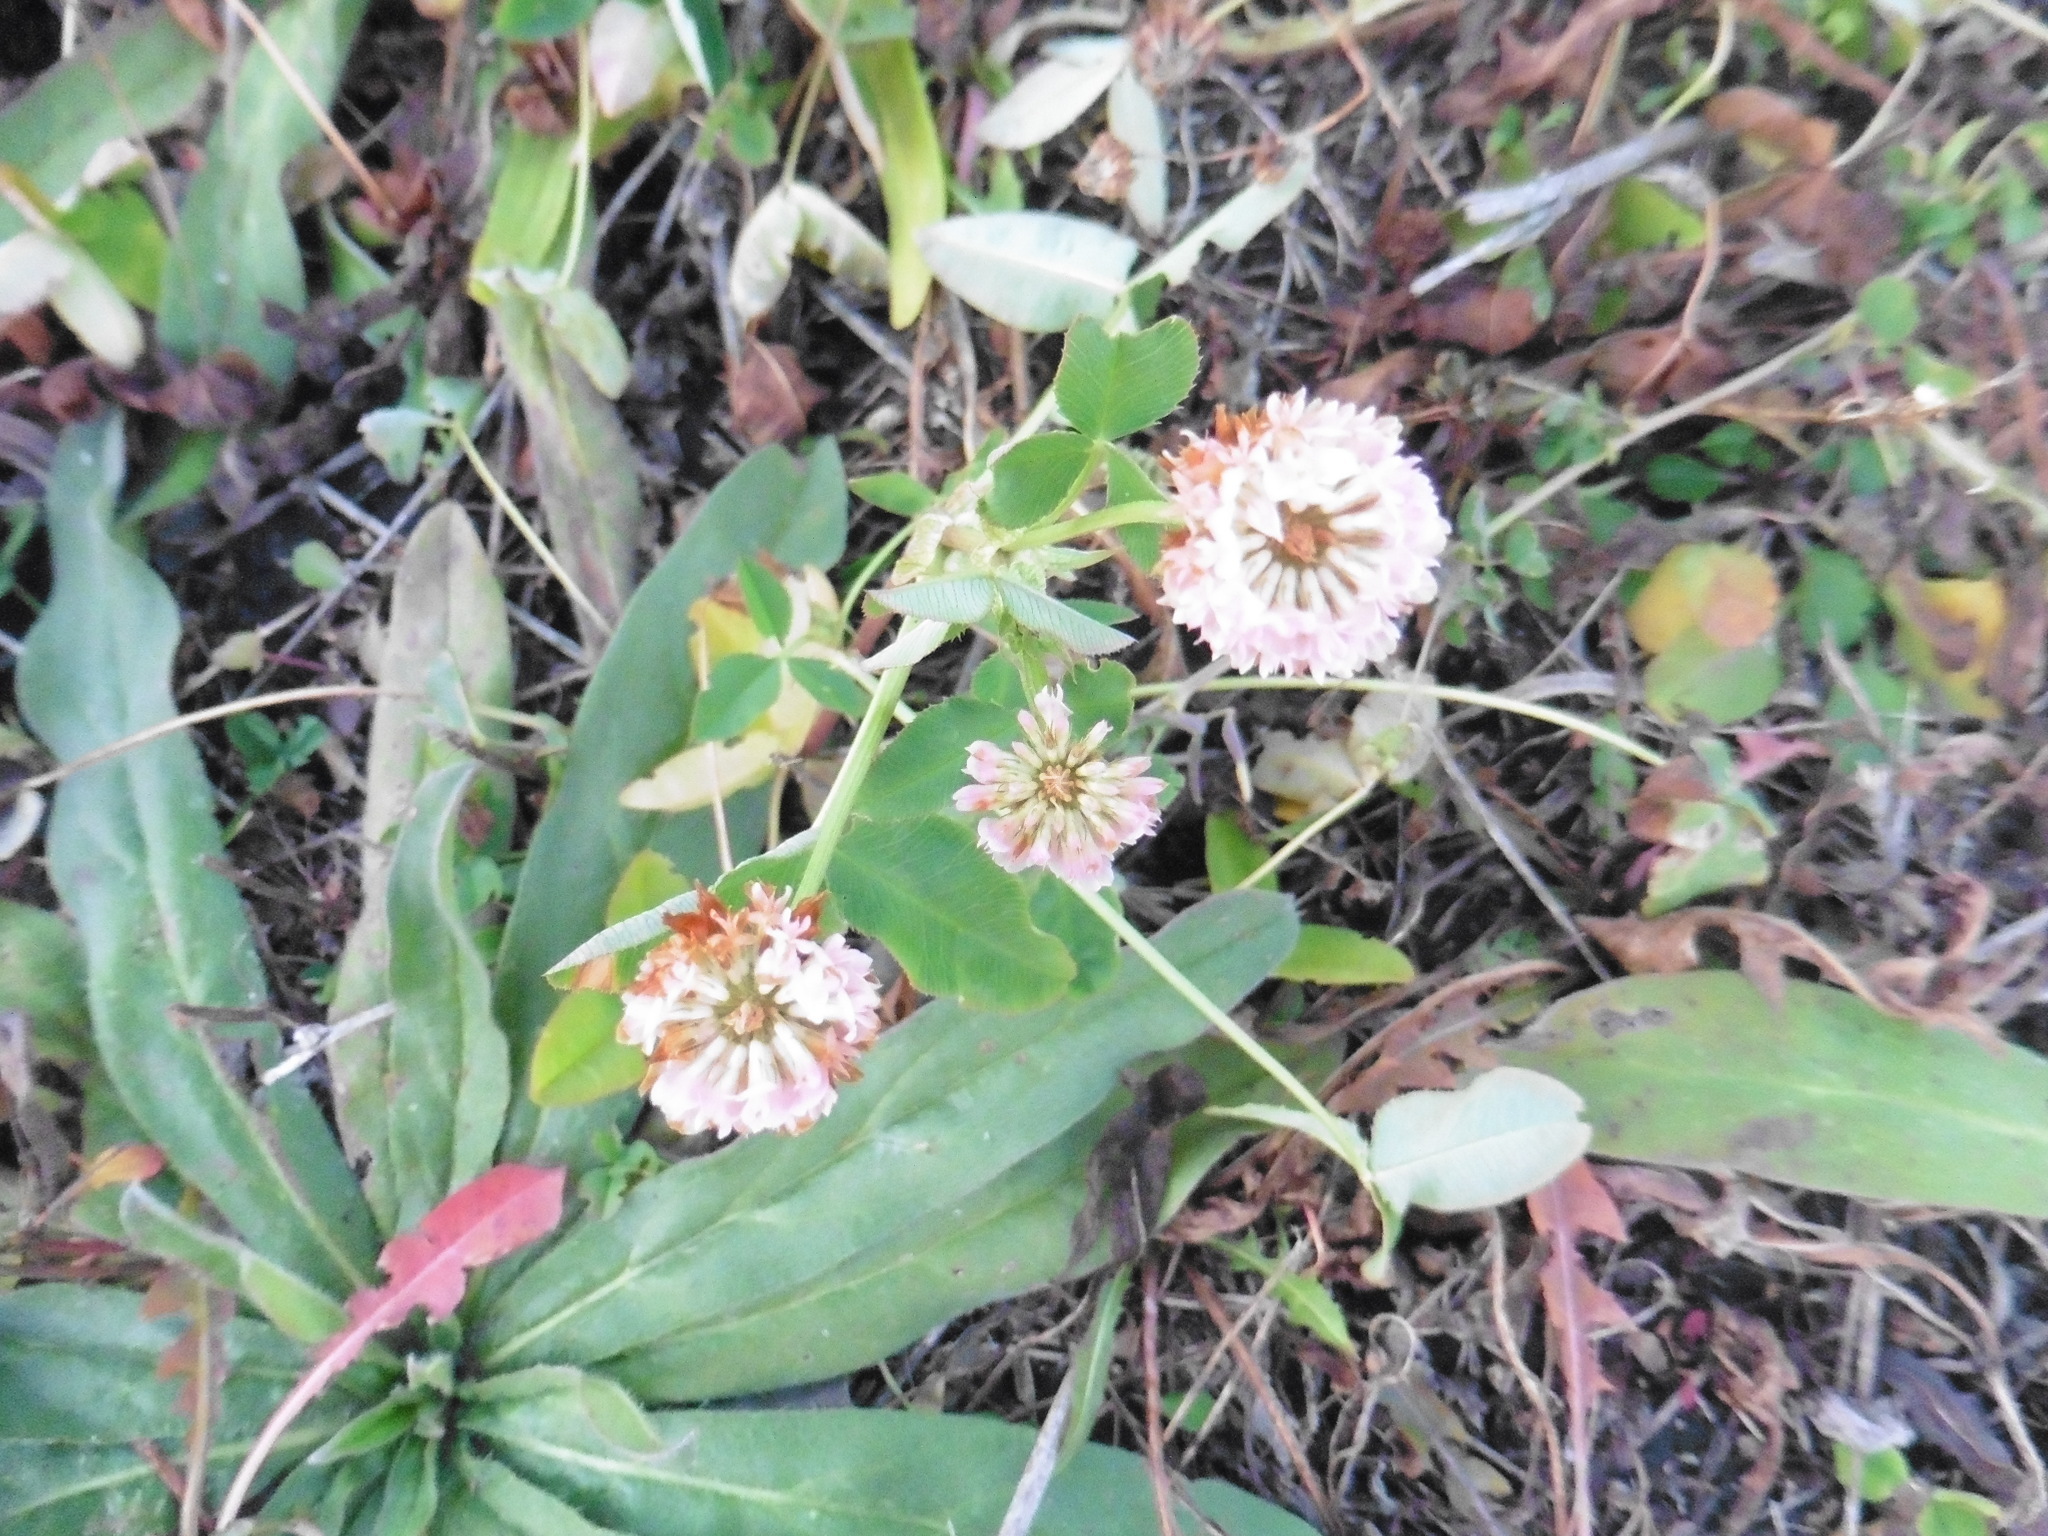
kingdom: Plantae
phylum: Tracheophyta
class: Magnoliopsida
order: Fabales
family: Fabaceae
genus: Trifolium
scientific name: Trifolium hybridum
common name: Alsike clover
